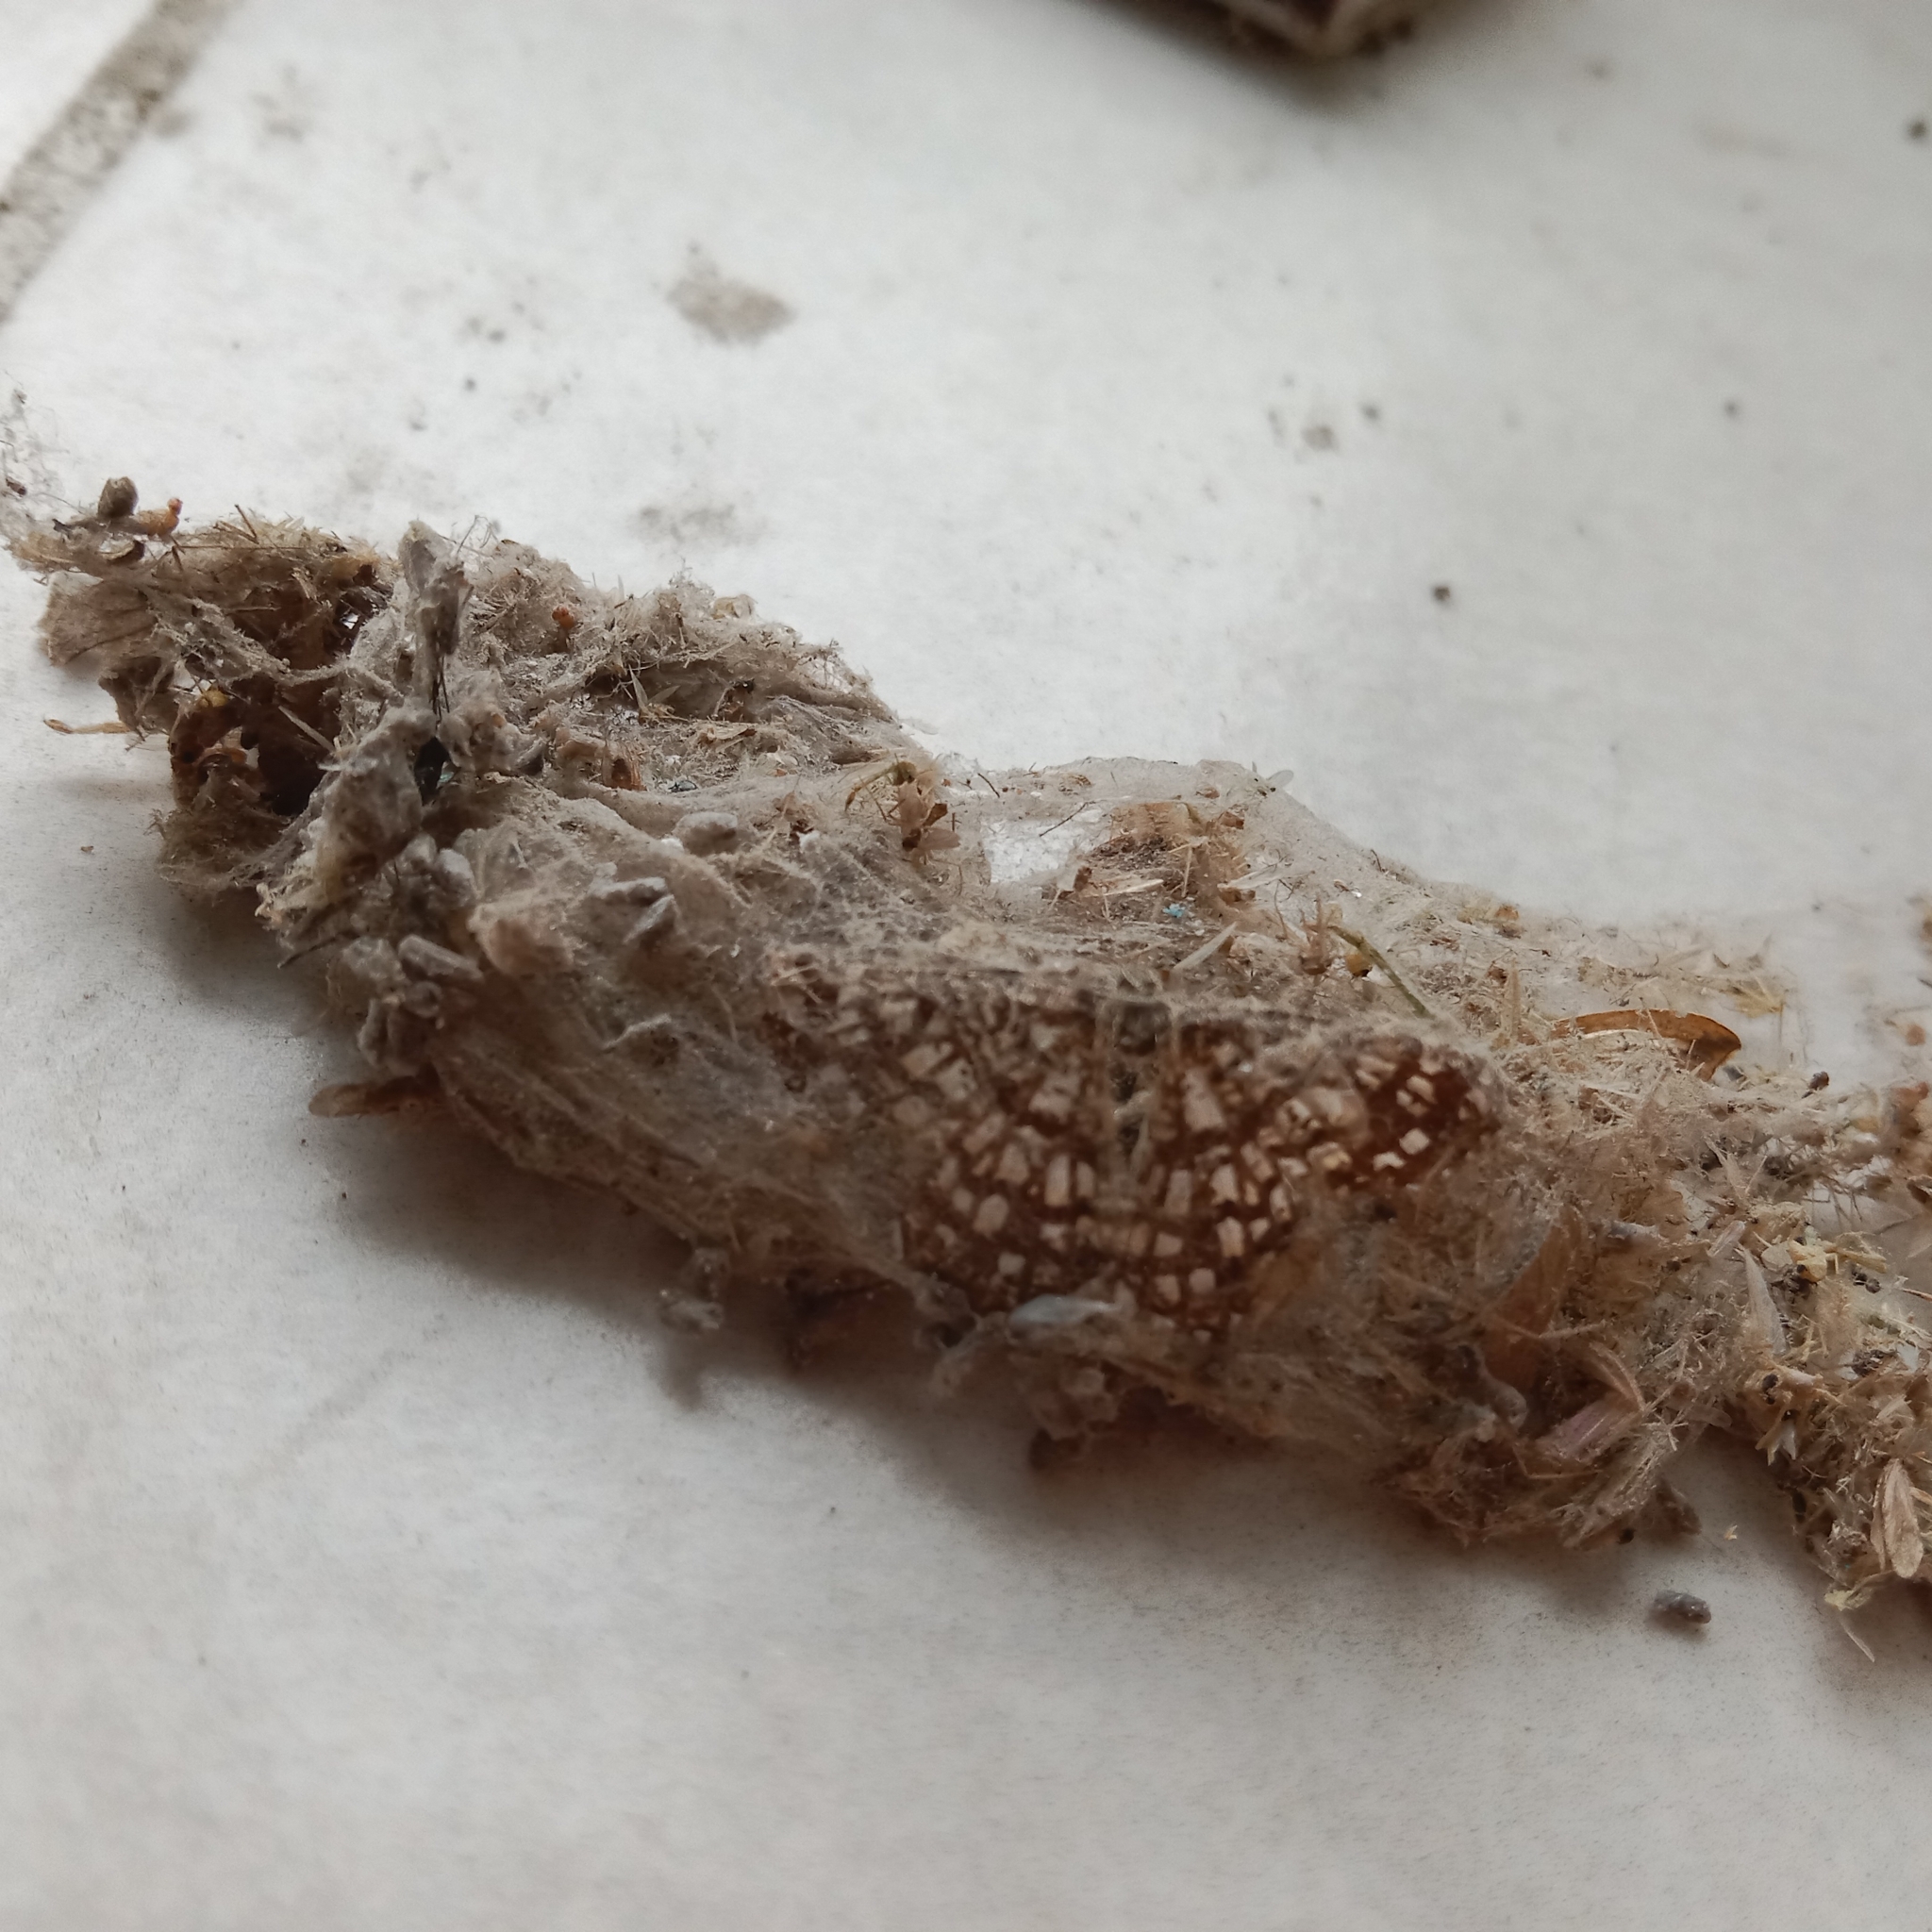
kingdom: Animalia
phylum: Arthropoda
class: Insecta
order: Lepidoptera
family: Geometridae
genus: Chiasmia
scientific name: Chiasmia clathrata
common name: Latticed heath
